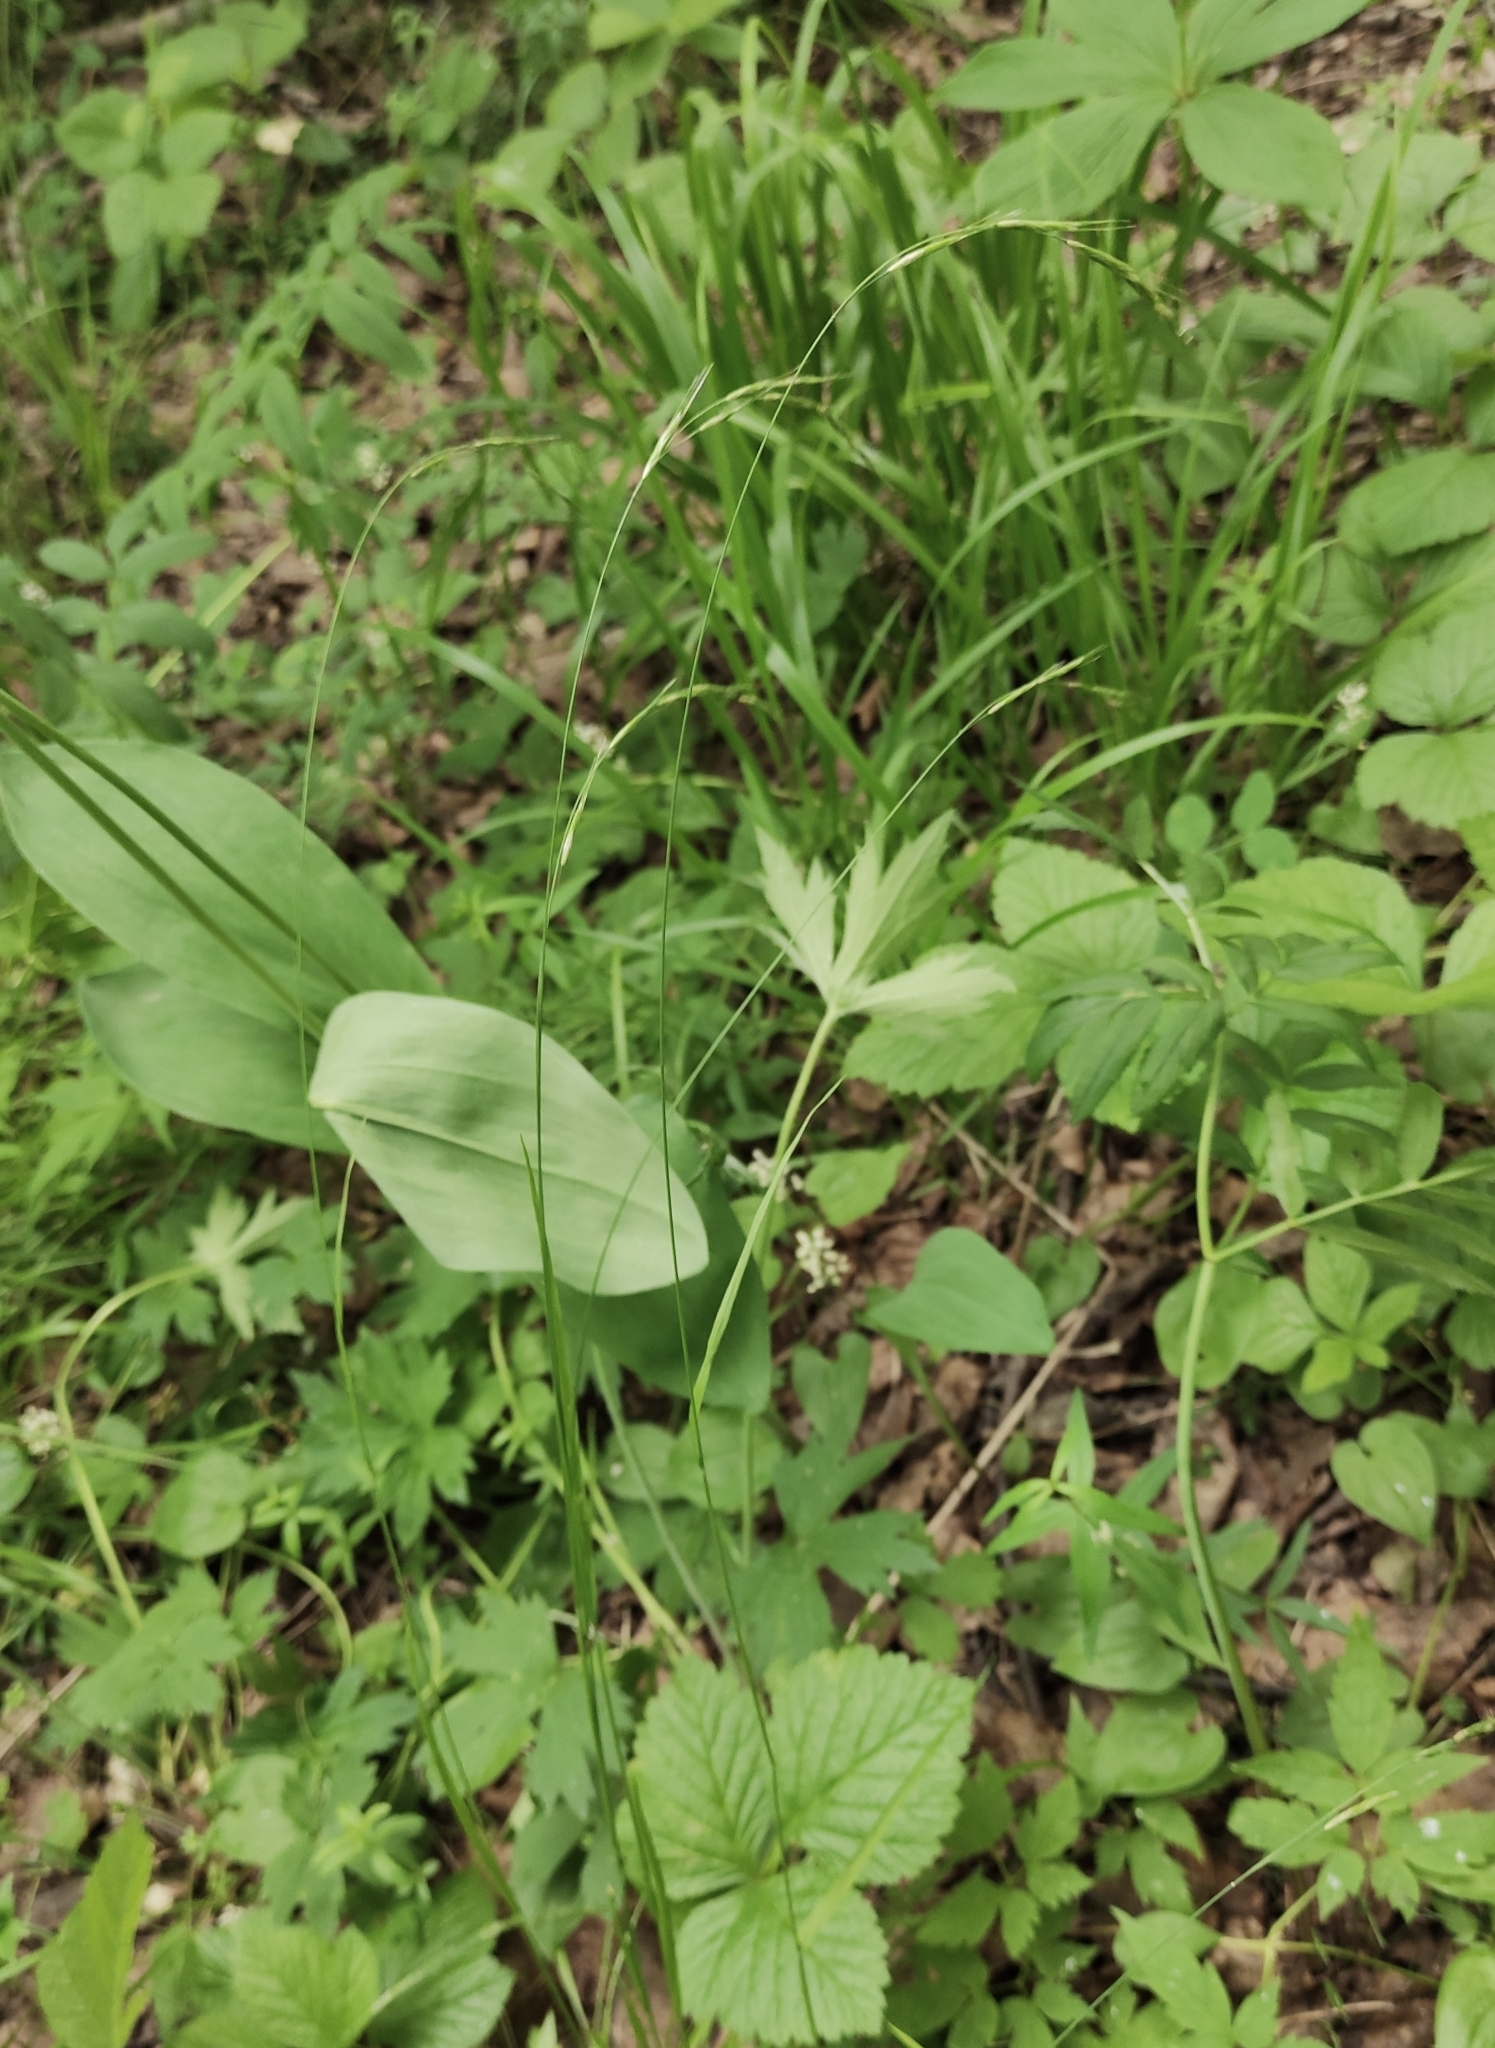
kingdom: Plantae
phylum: Tracheophyta
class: Liliopsida
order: Poales
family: Poaceae
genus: Schizachne
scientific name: Schizachne purpurascens
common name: False melic
